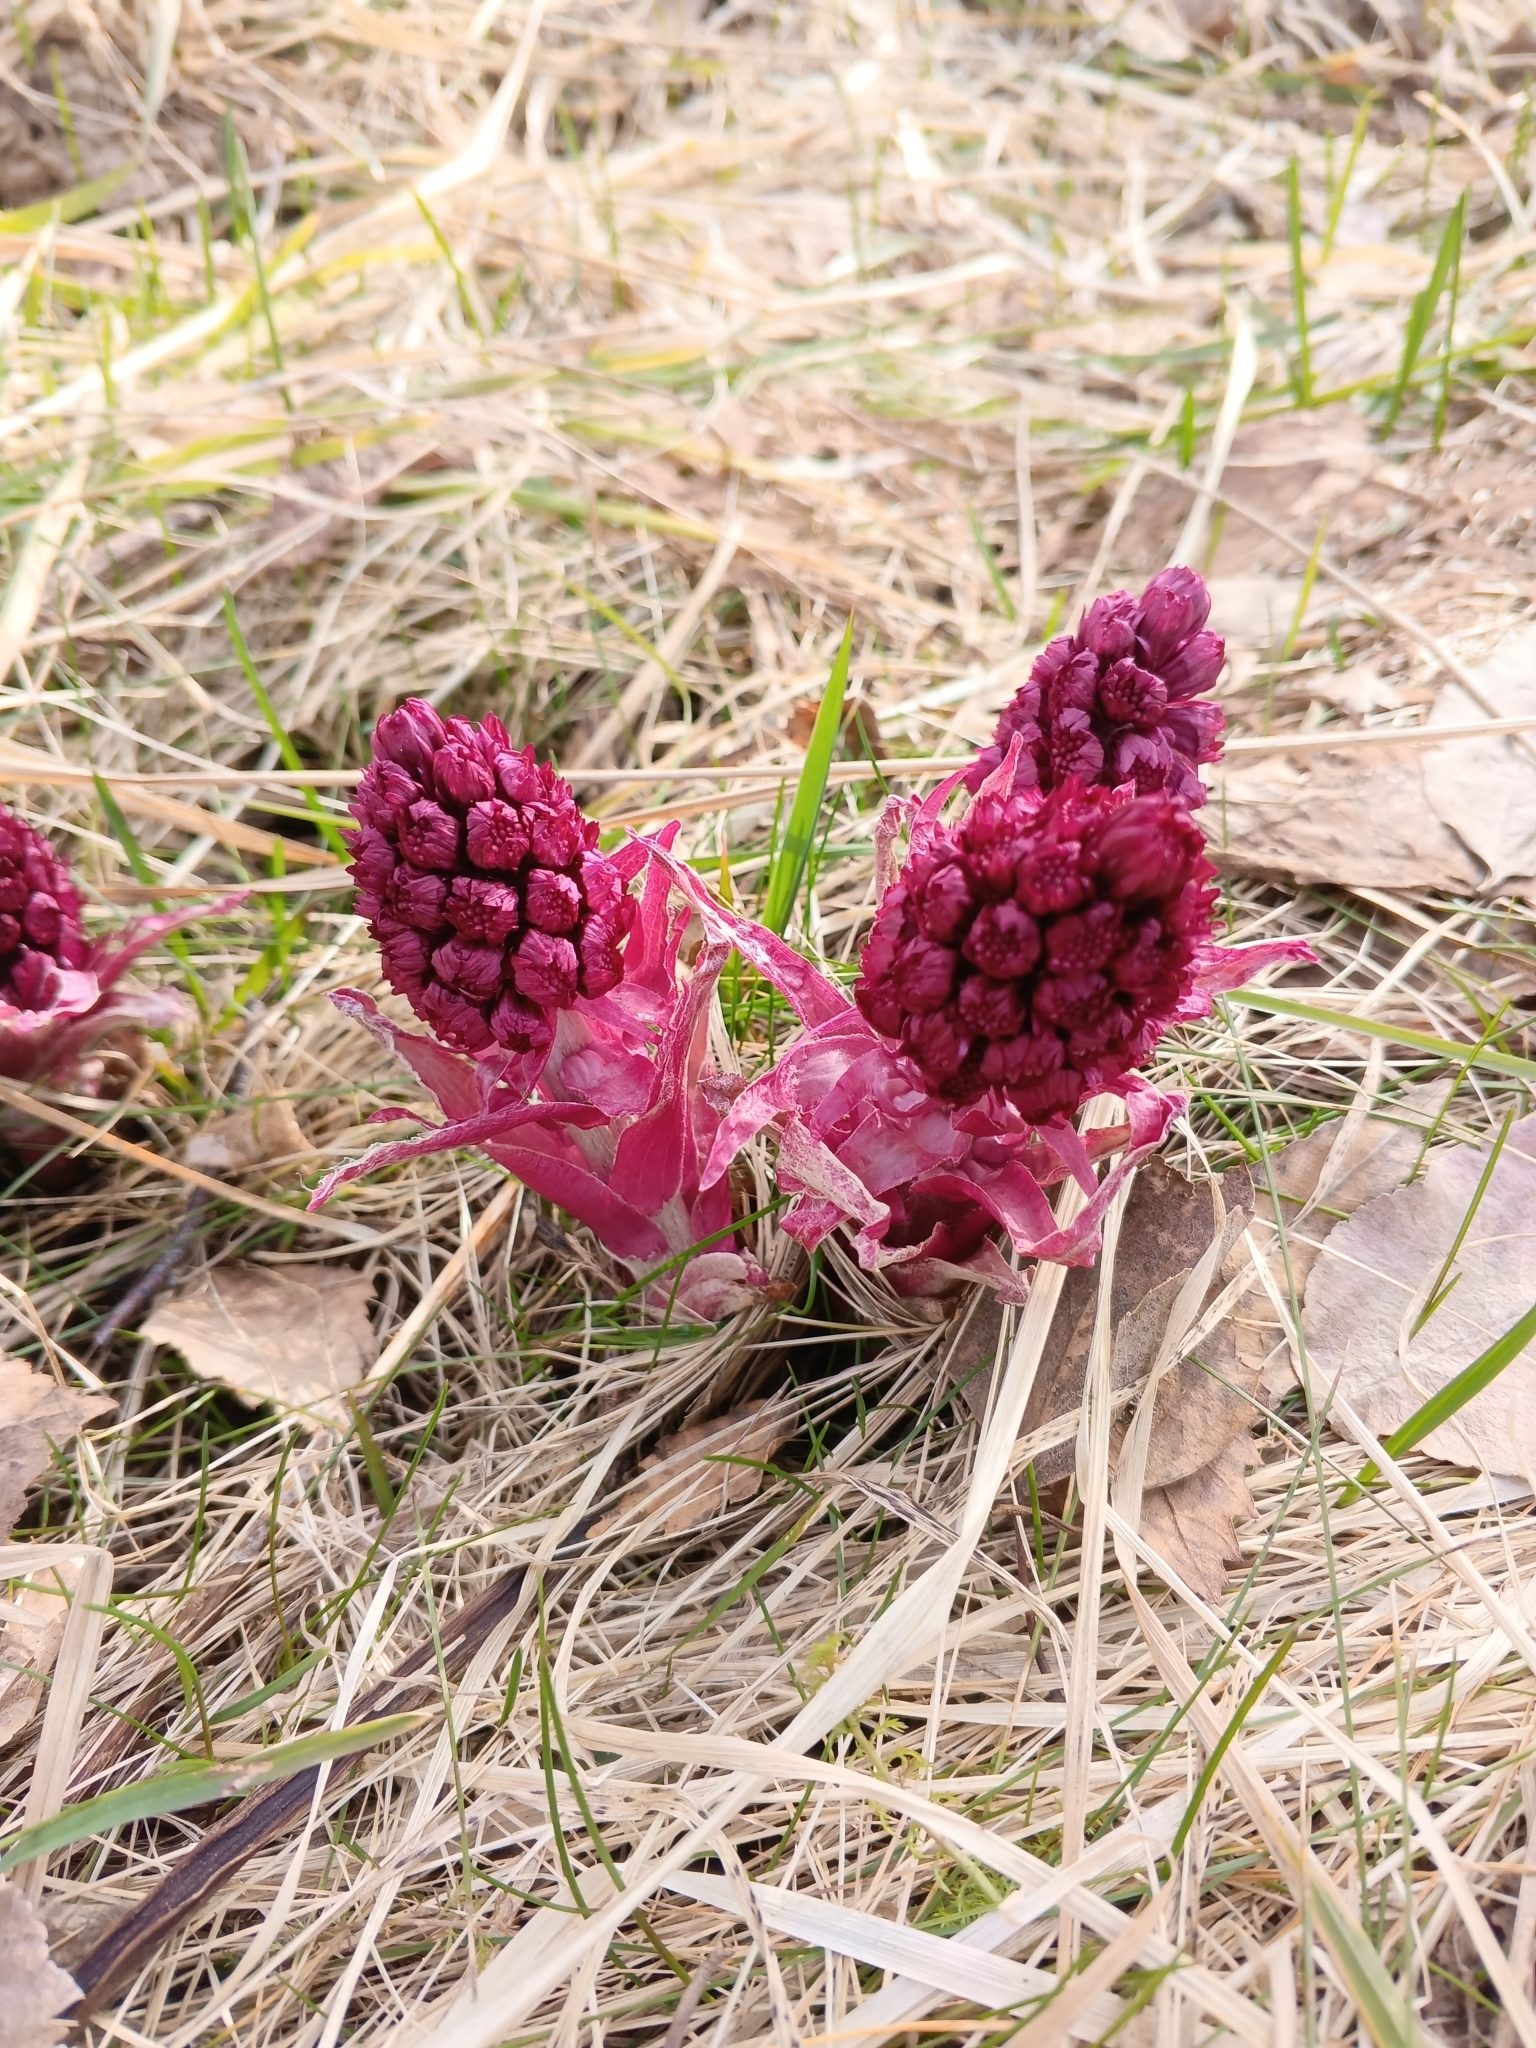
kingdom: Plantae
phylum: Tracheophyta
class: Magnoliopsida
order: Asterales
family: Asteraceae
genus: Petasites
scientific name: Petasites hybridus
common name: Butterbur
